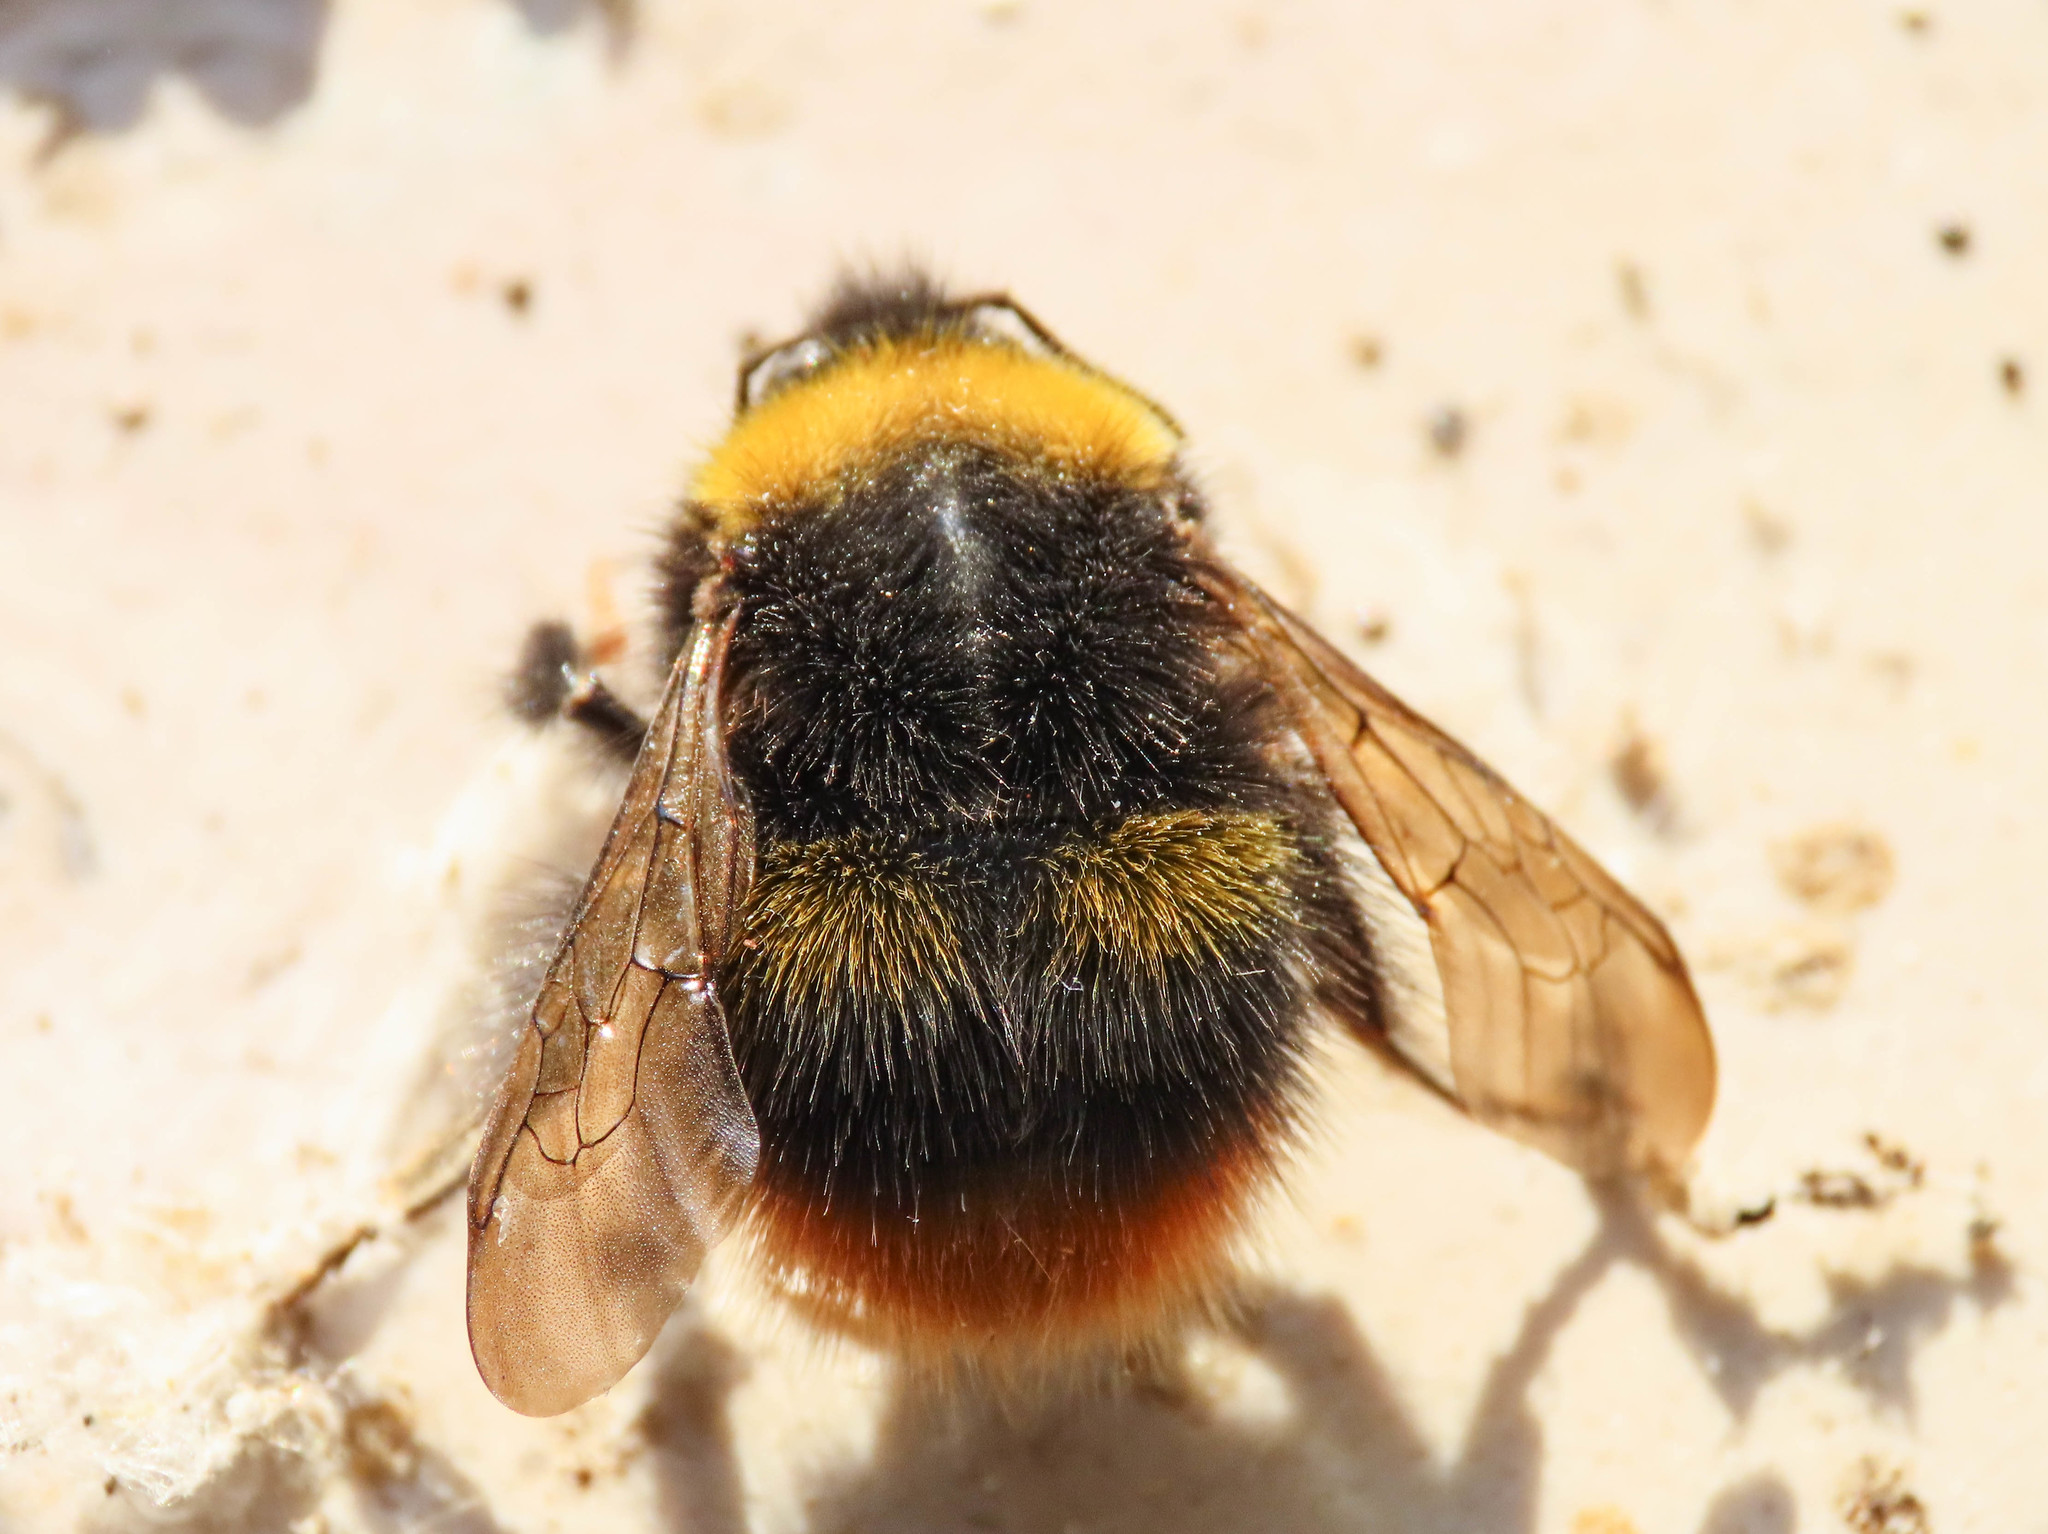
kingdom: Animalia
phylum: Arthropoda
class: Insecta
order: Hymenoptera
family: Apidae
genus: Bombus
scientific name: Bombus pratorum
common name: Early humble-bee
